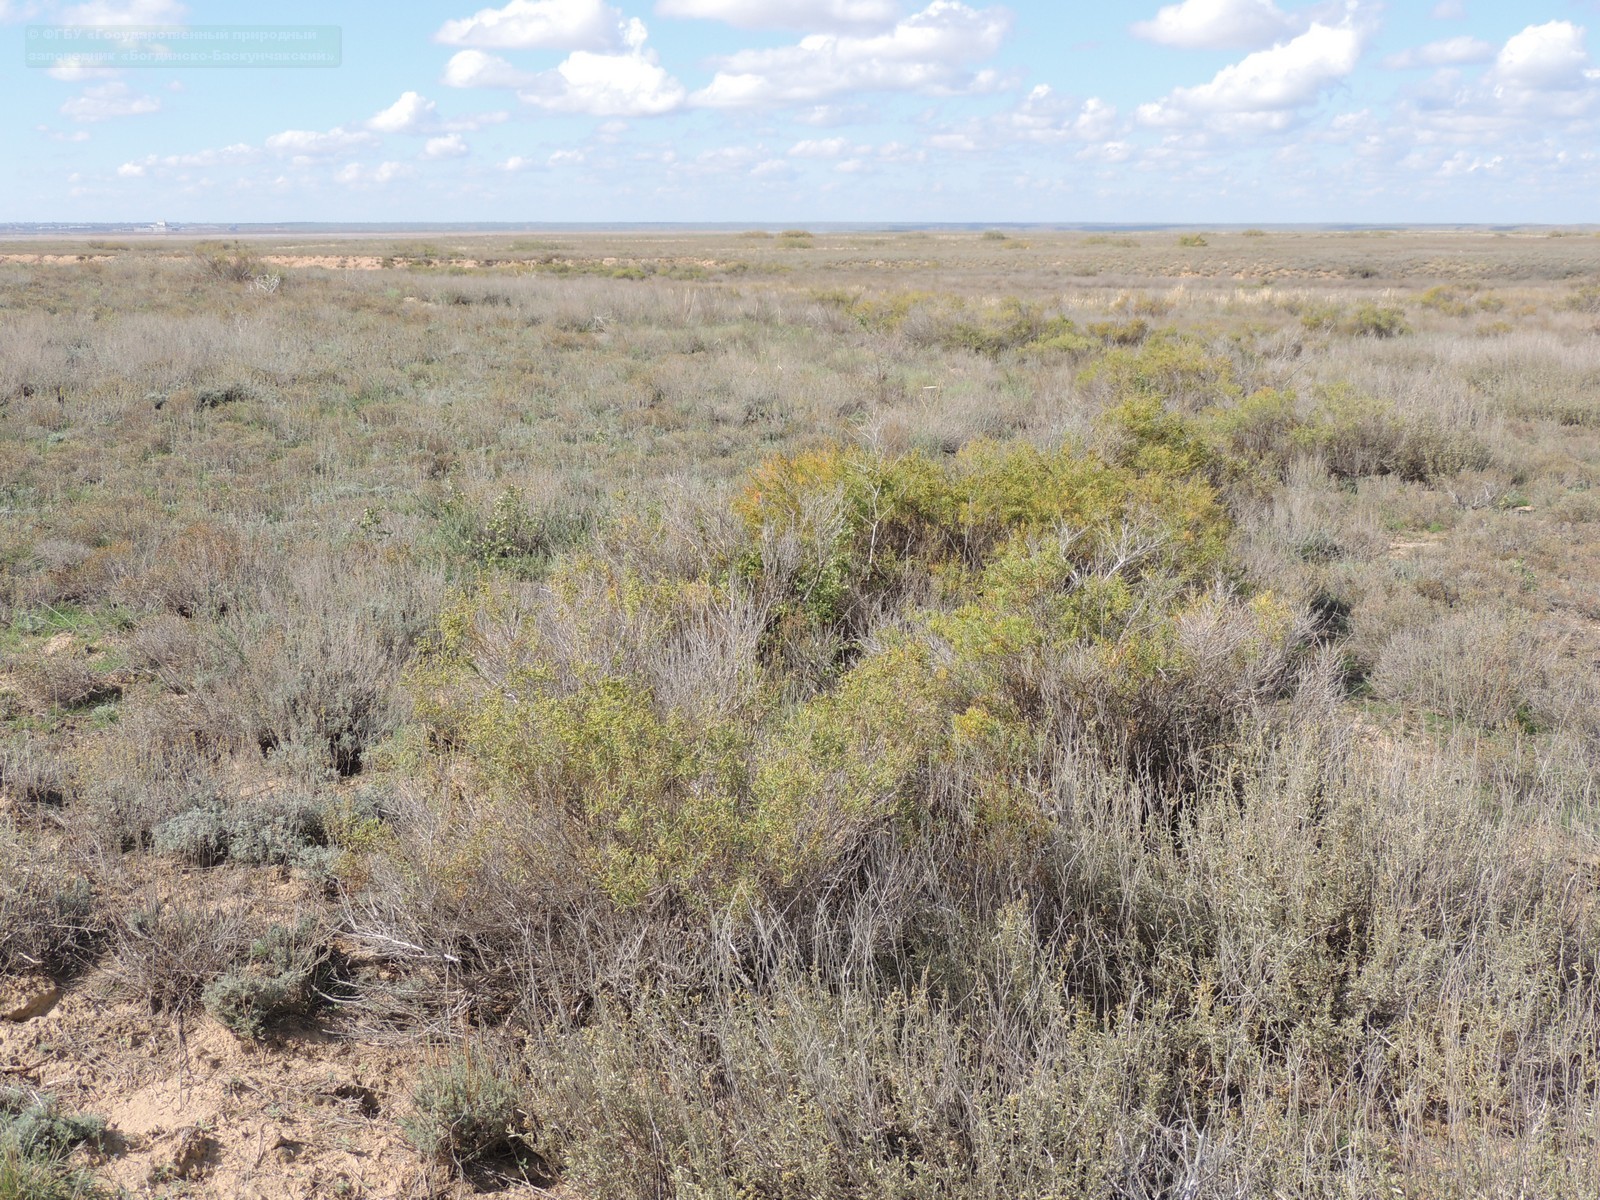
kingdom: Plantae
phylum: Tracheophyta
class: Magnoliopsida
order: Caryophyllales
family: Amaranthaceae
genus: Suaeda
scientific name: Suaeda physophora
